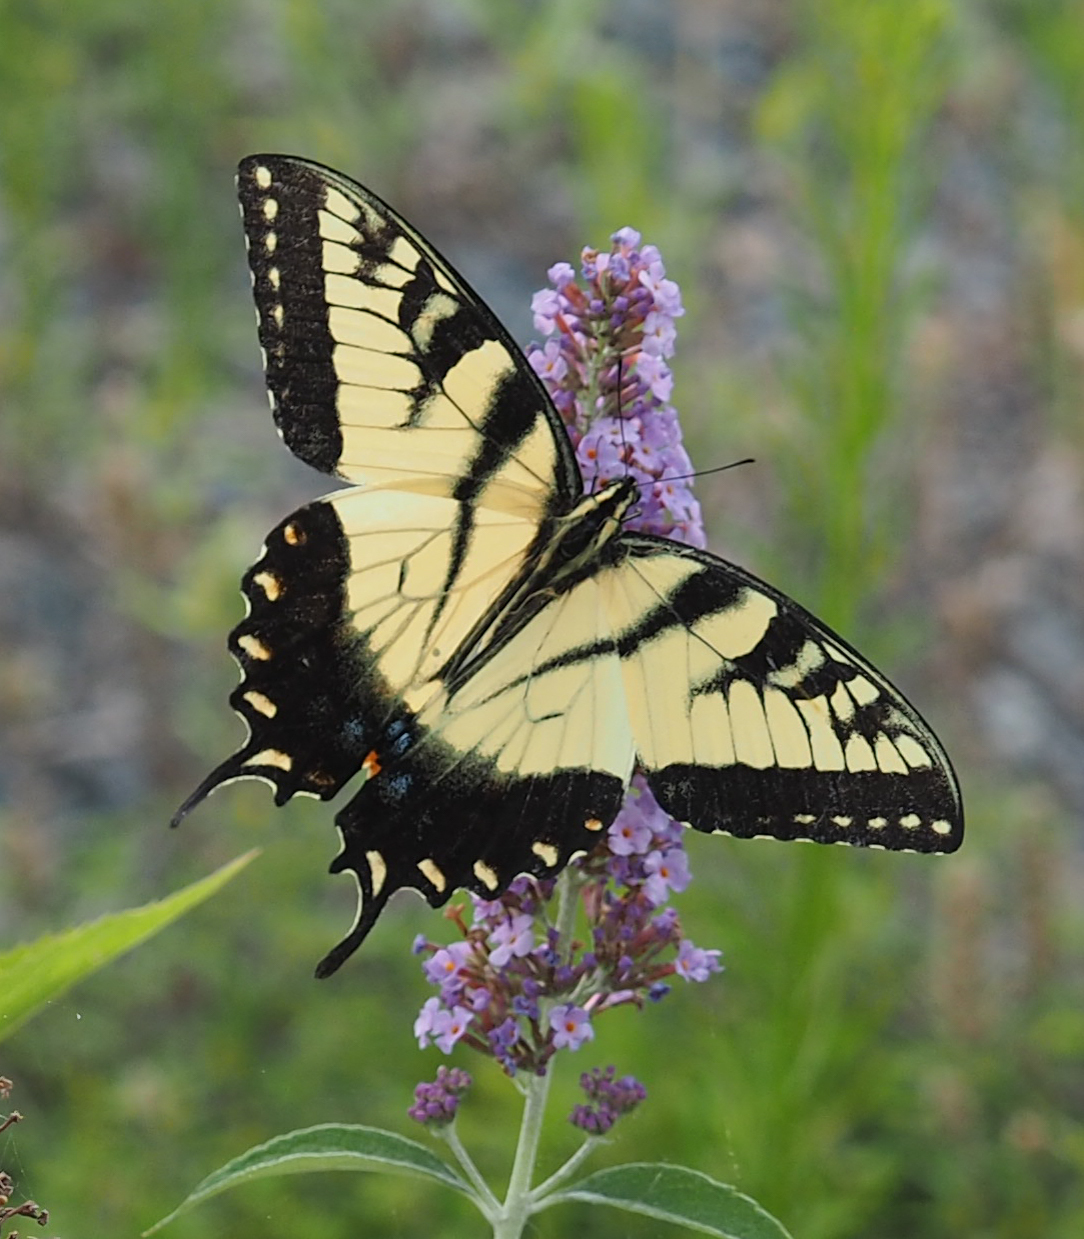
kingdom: Animalia
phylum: Arthropoda
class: Insecta
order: Lepidoptera
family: Papilionidae
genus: Papilio
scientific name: Papilio glaucus
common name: Tiger swallowtail
